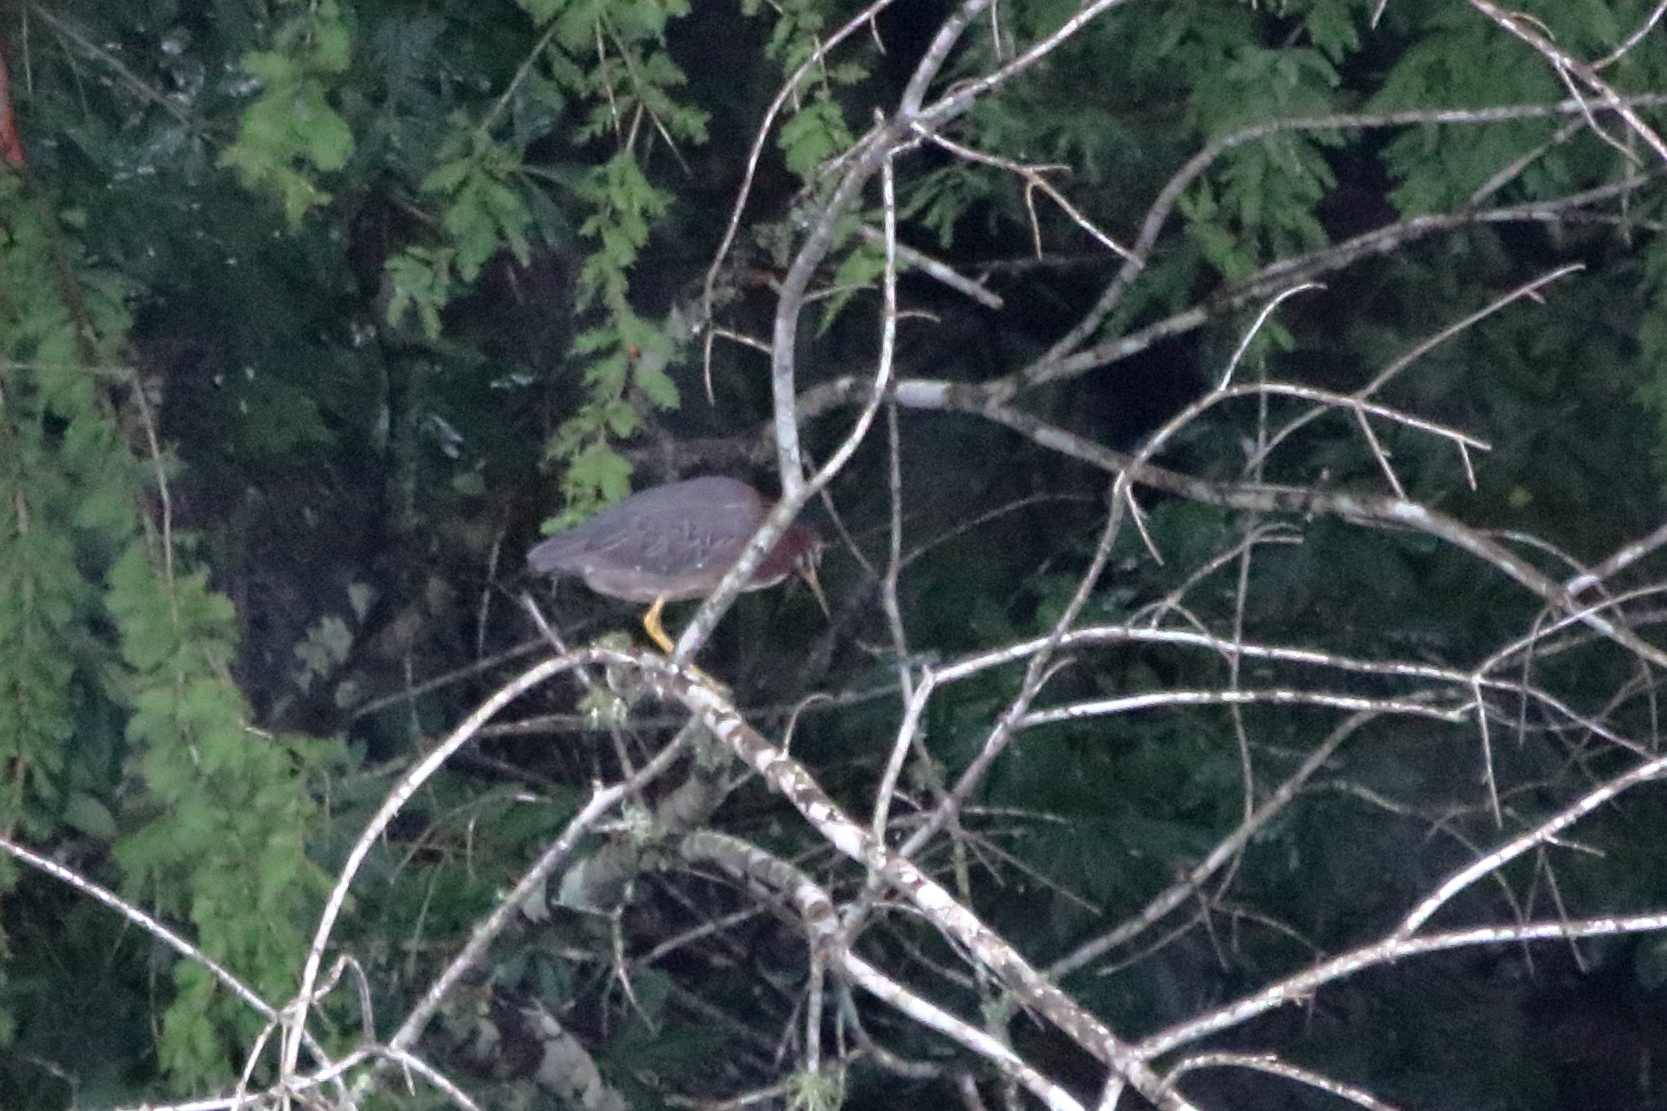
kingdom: Animalia
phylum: Chordata
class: Aves
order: Pelecaniformes
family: Ardeidae
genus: Butorides
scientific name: Butorides virescens
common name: Green heron
